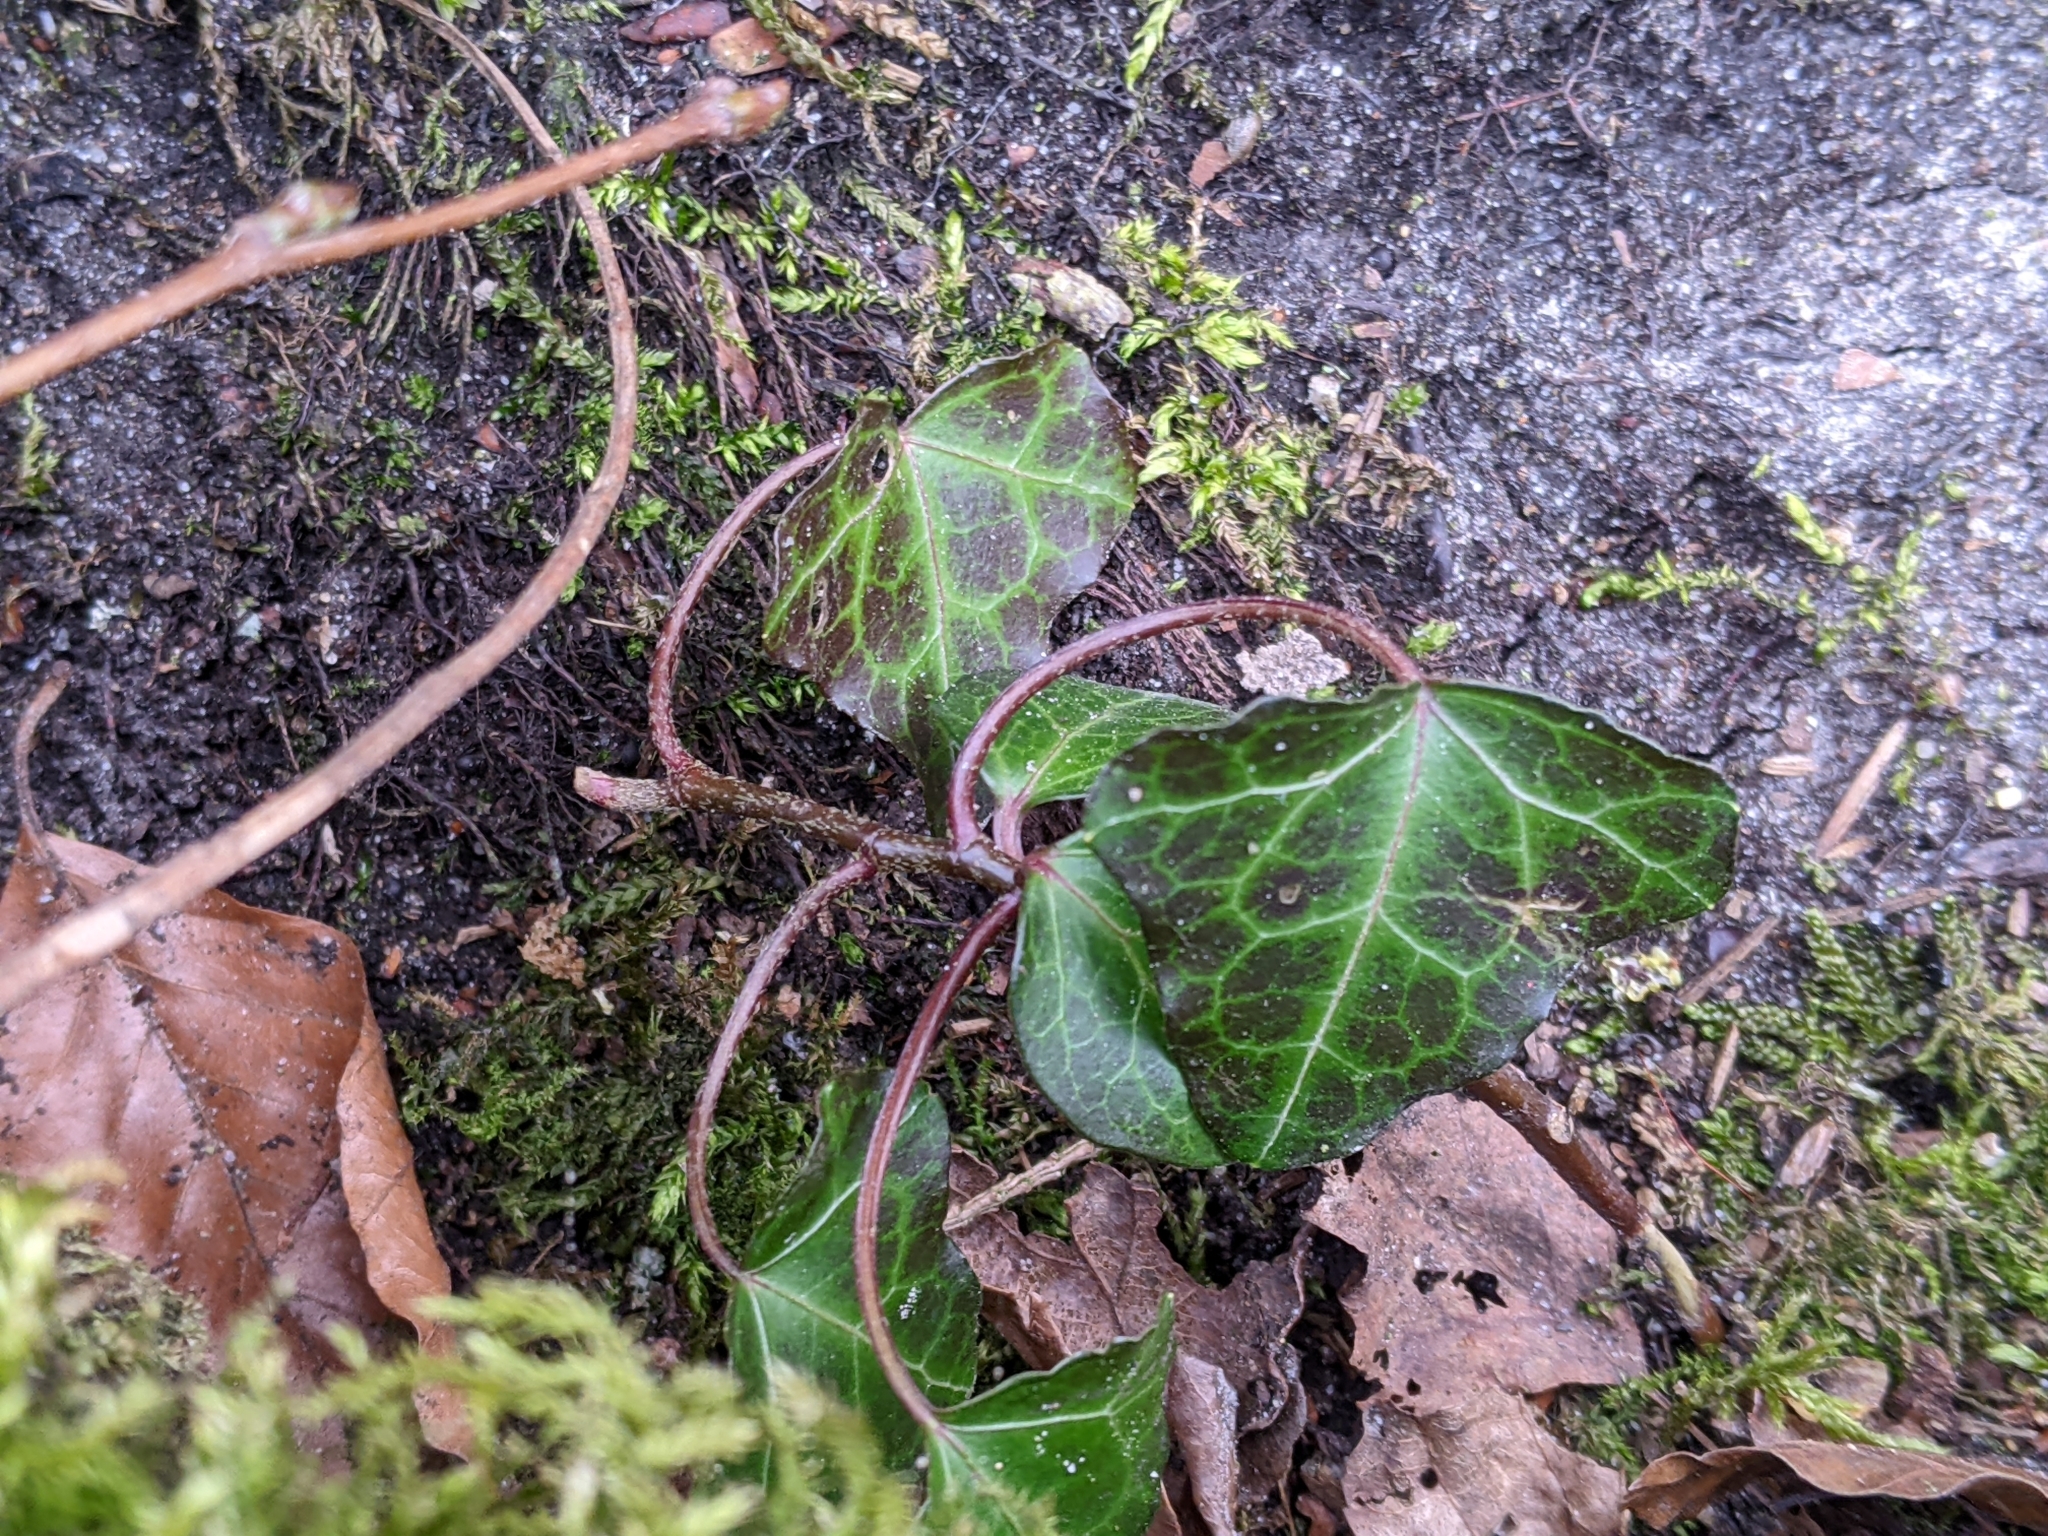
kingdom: Plantae
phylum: Tracheophyta
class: Magnoliopsida
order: Apiales
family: Araliaceae
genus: Hedera
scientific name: Hedera helix
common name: Ivy
